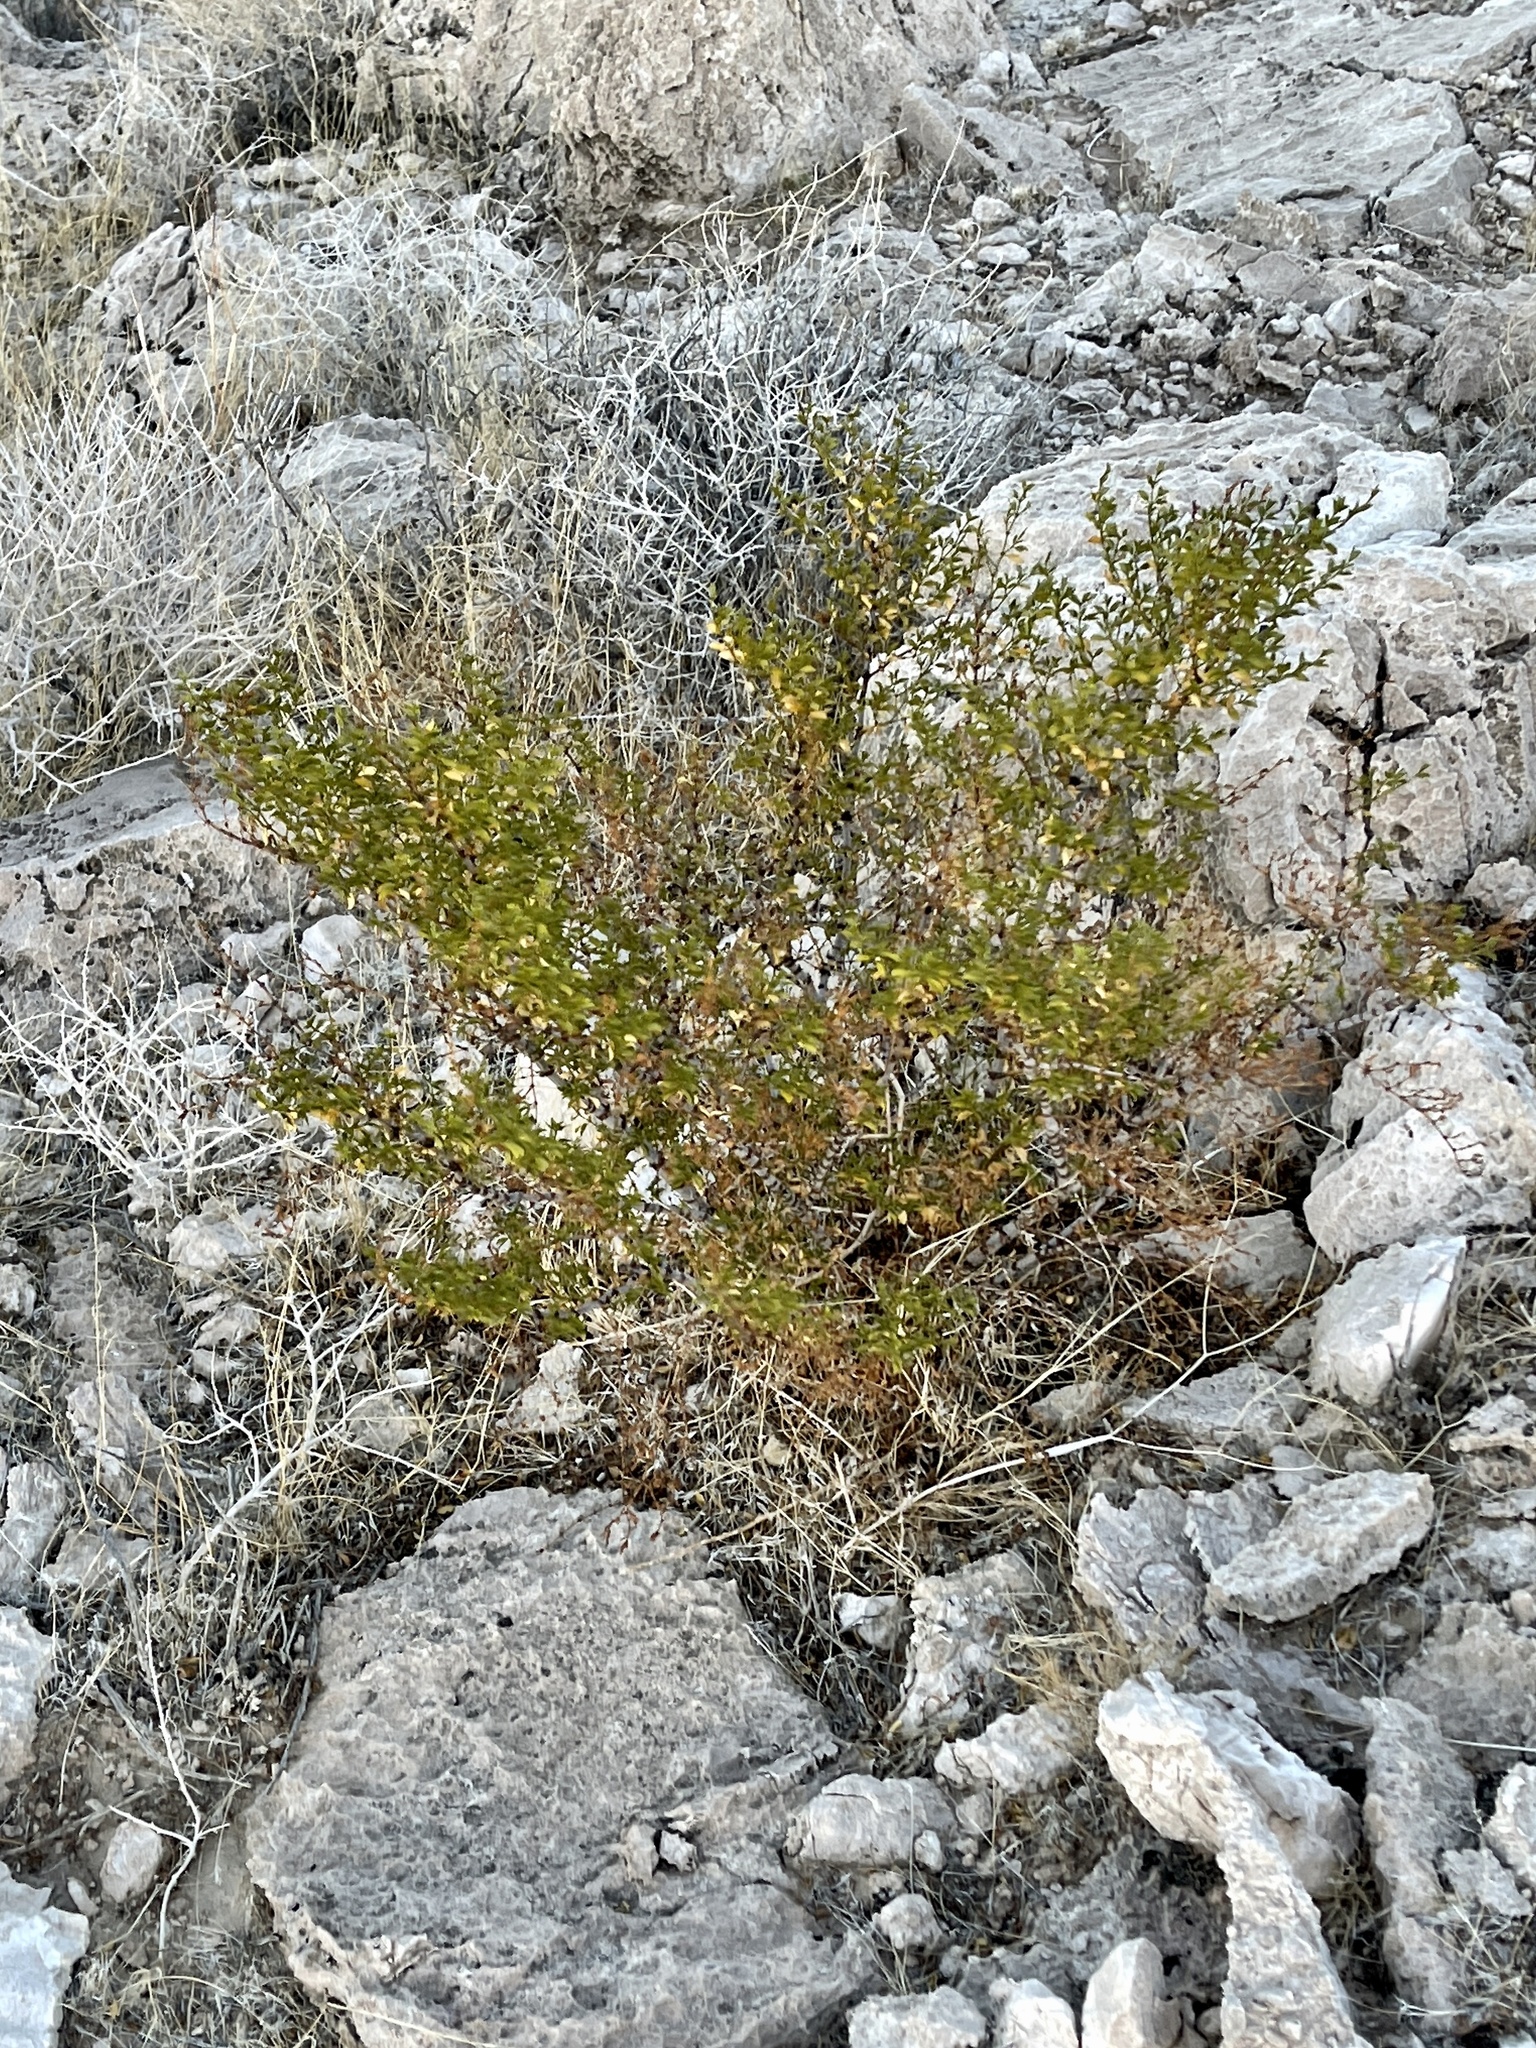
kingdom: Plantae
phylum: Tracheophyta
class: Magnoliopsida
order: Zygophyllales
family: Zygophyllaceae
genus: Larrea
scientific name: Larrea tridentata
